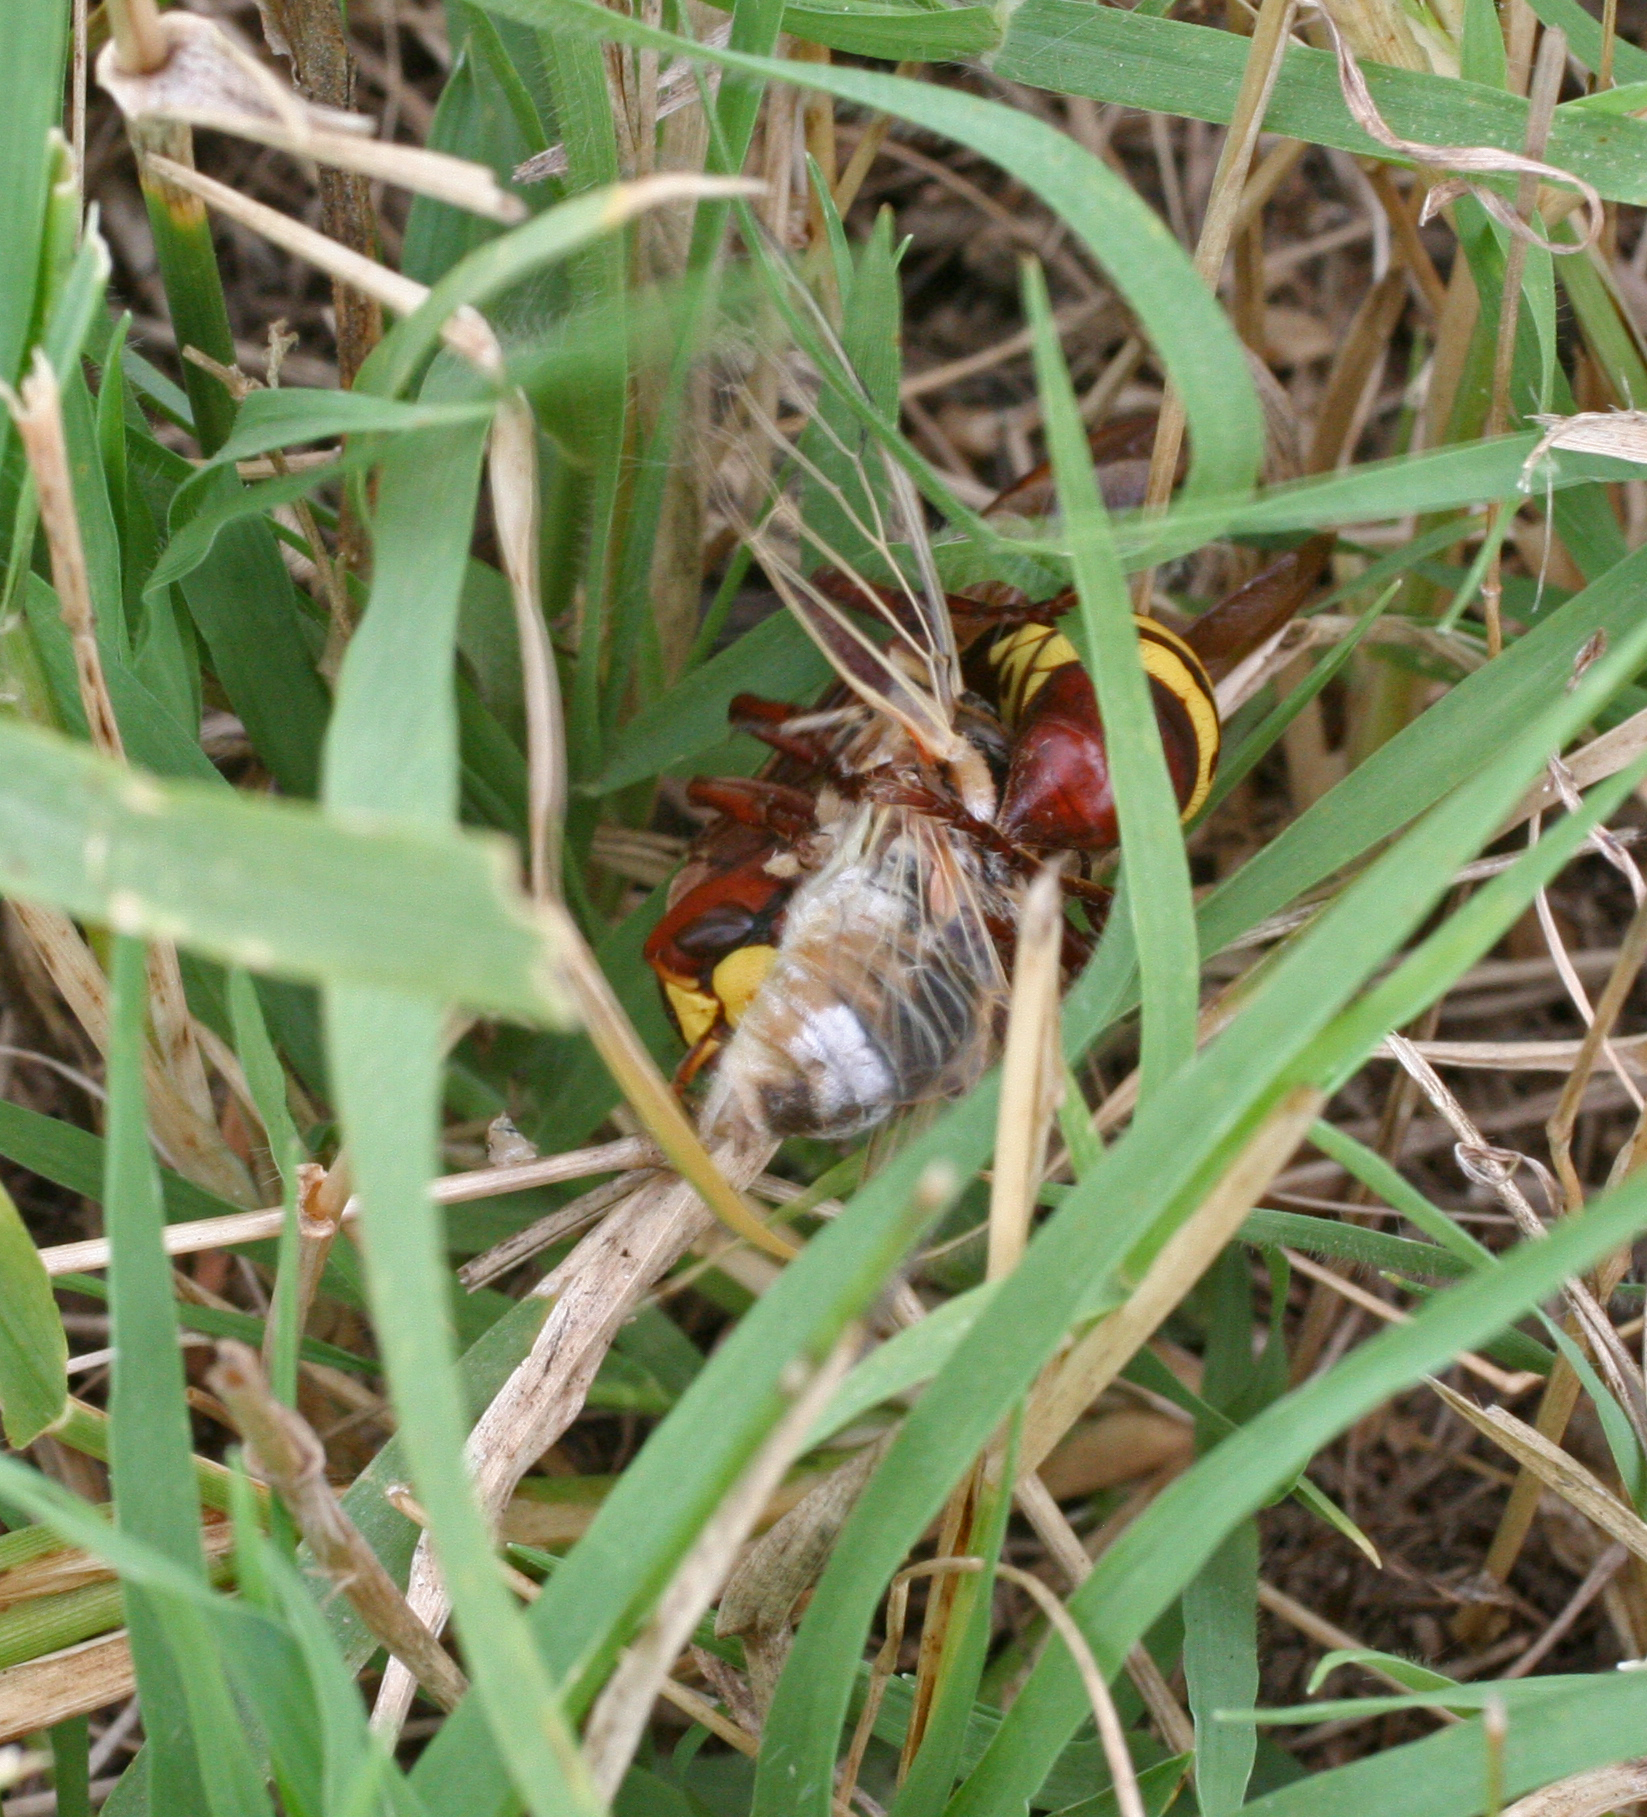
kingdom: Animalia
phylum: Arthropoda
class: Insecta
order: Hemiptera
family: Cicadidae
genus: Cicadatra
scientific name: Cicadatra platyptera
